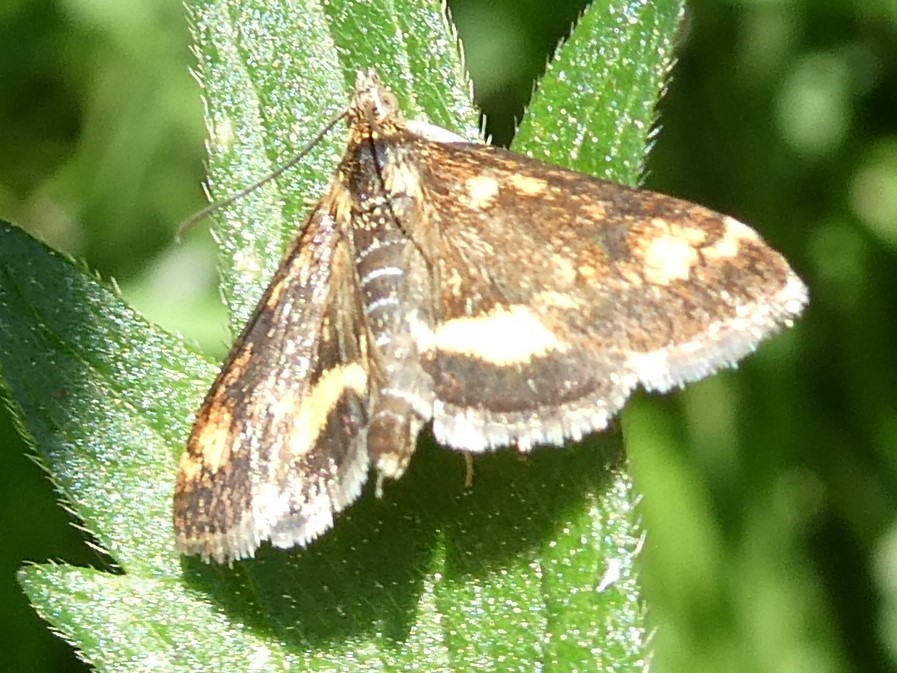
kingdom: Animalia
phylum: Arthropoda
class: Insecta
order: Lepidoptera
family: Crambidae
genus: Pyrausta
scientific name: Pyrausta orphisalis
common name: Orange mint moth
